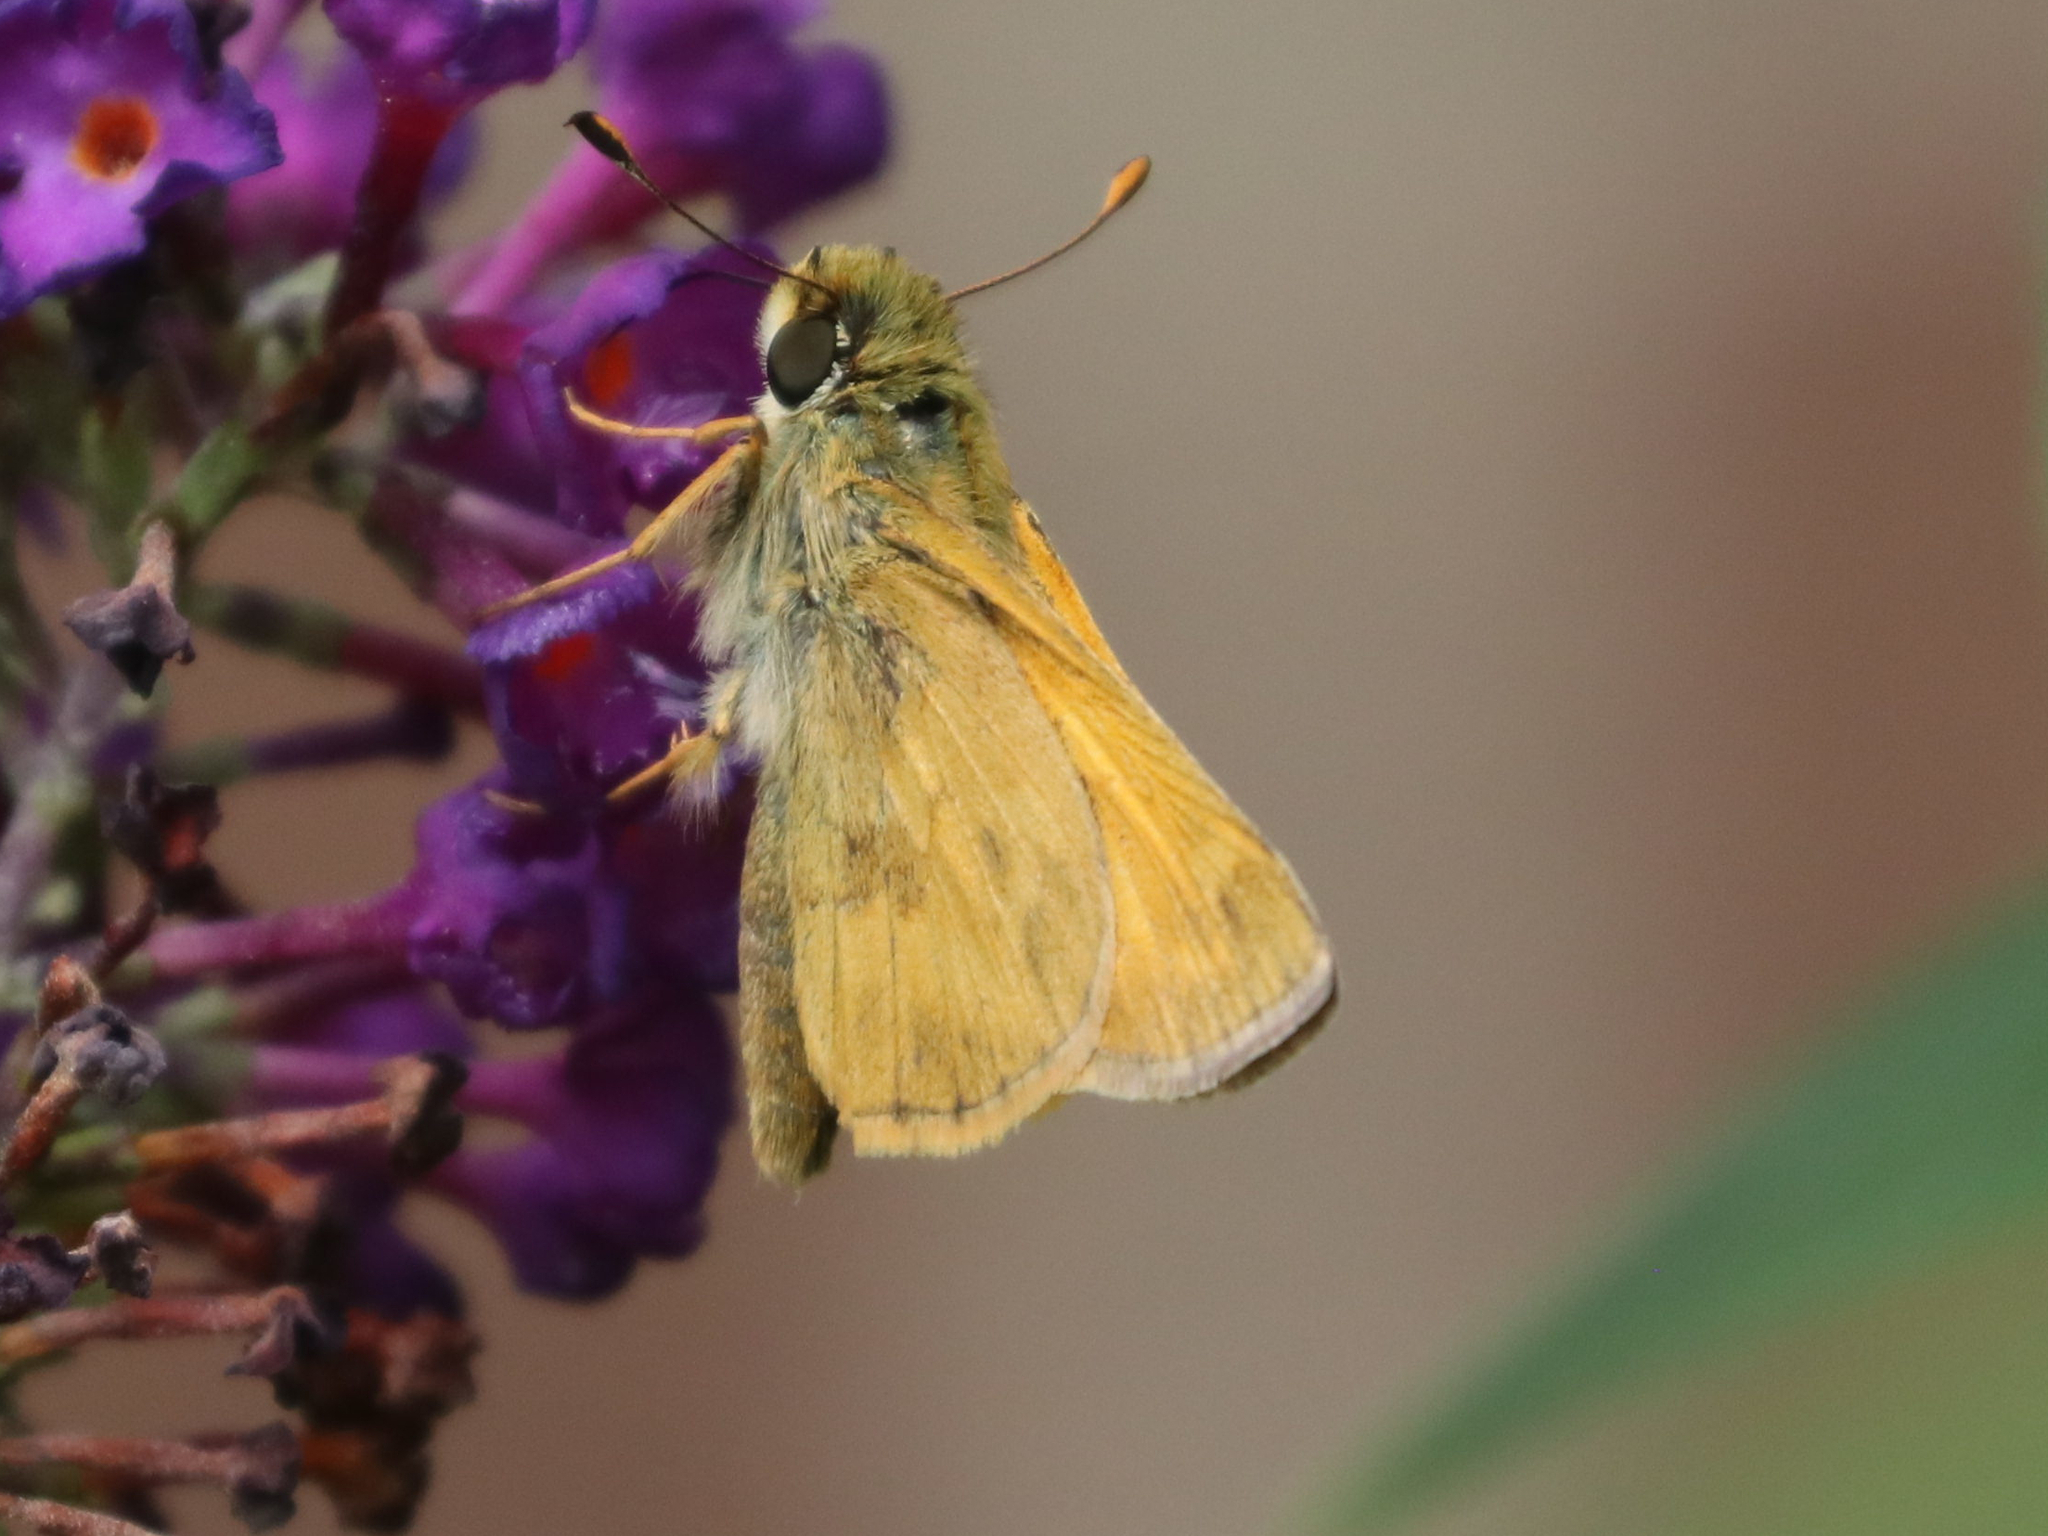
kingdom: Animalia
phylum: Arthropoda
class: Insecta
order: Lepidoptera
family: Hesperiidae
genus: Atalopedes
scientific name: Atalopedes
